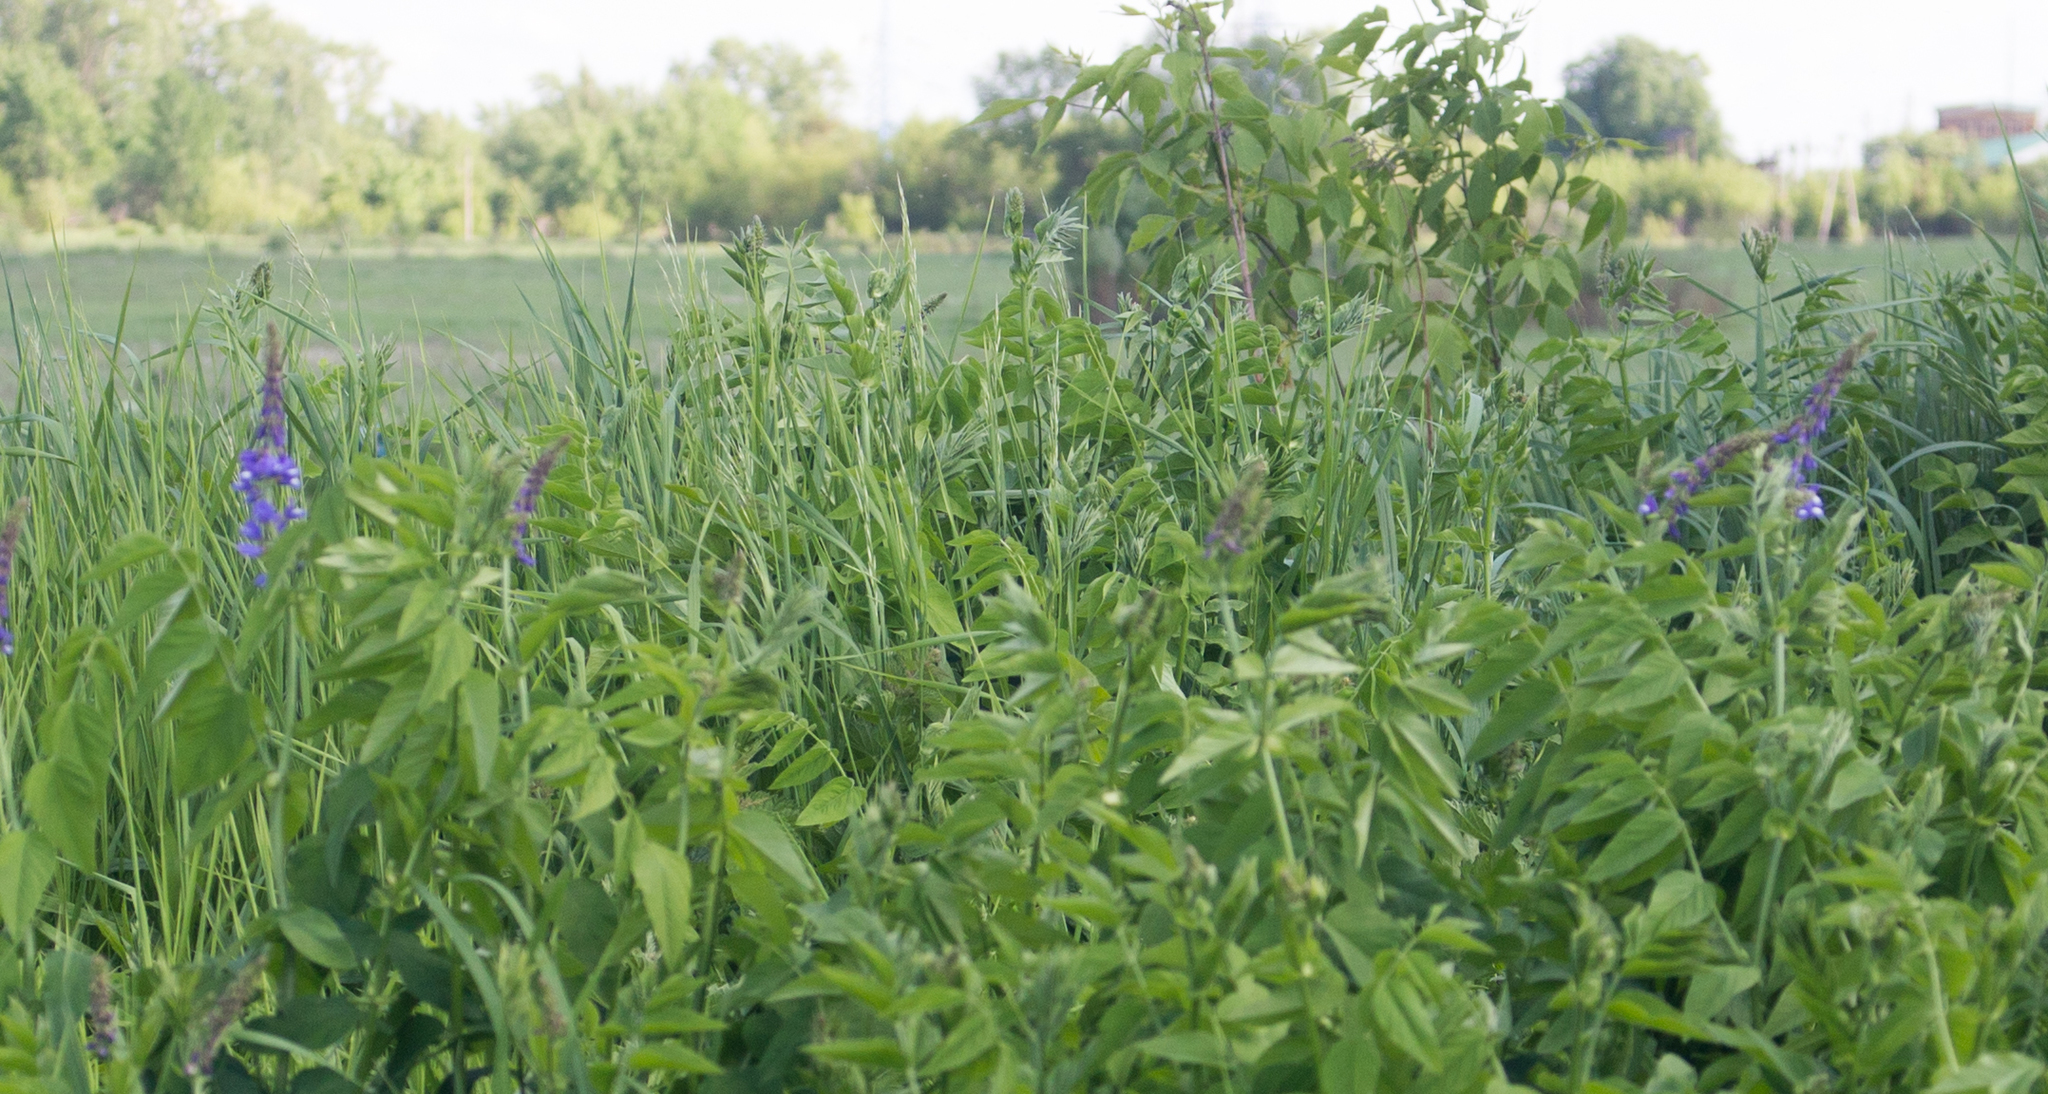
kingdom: Plantae
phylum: Tracheophyta
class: Magnoliopsida
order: Fabales
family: Fabaceae
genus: Galega
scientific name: Galega orientalis
